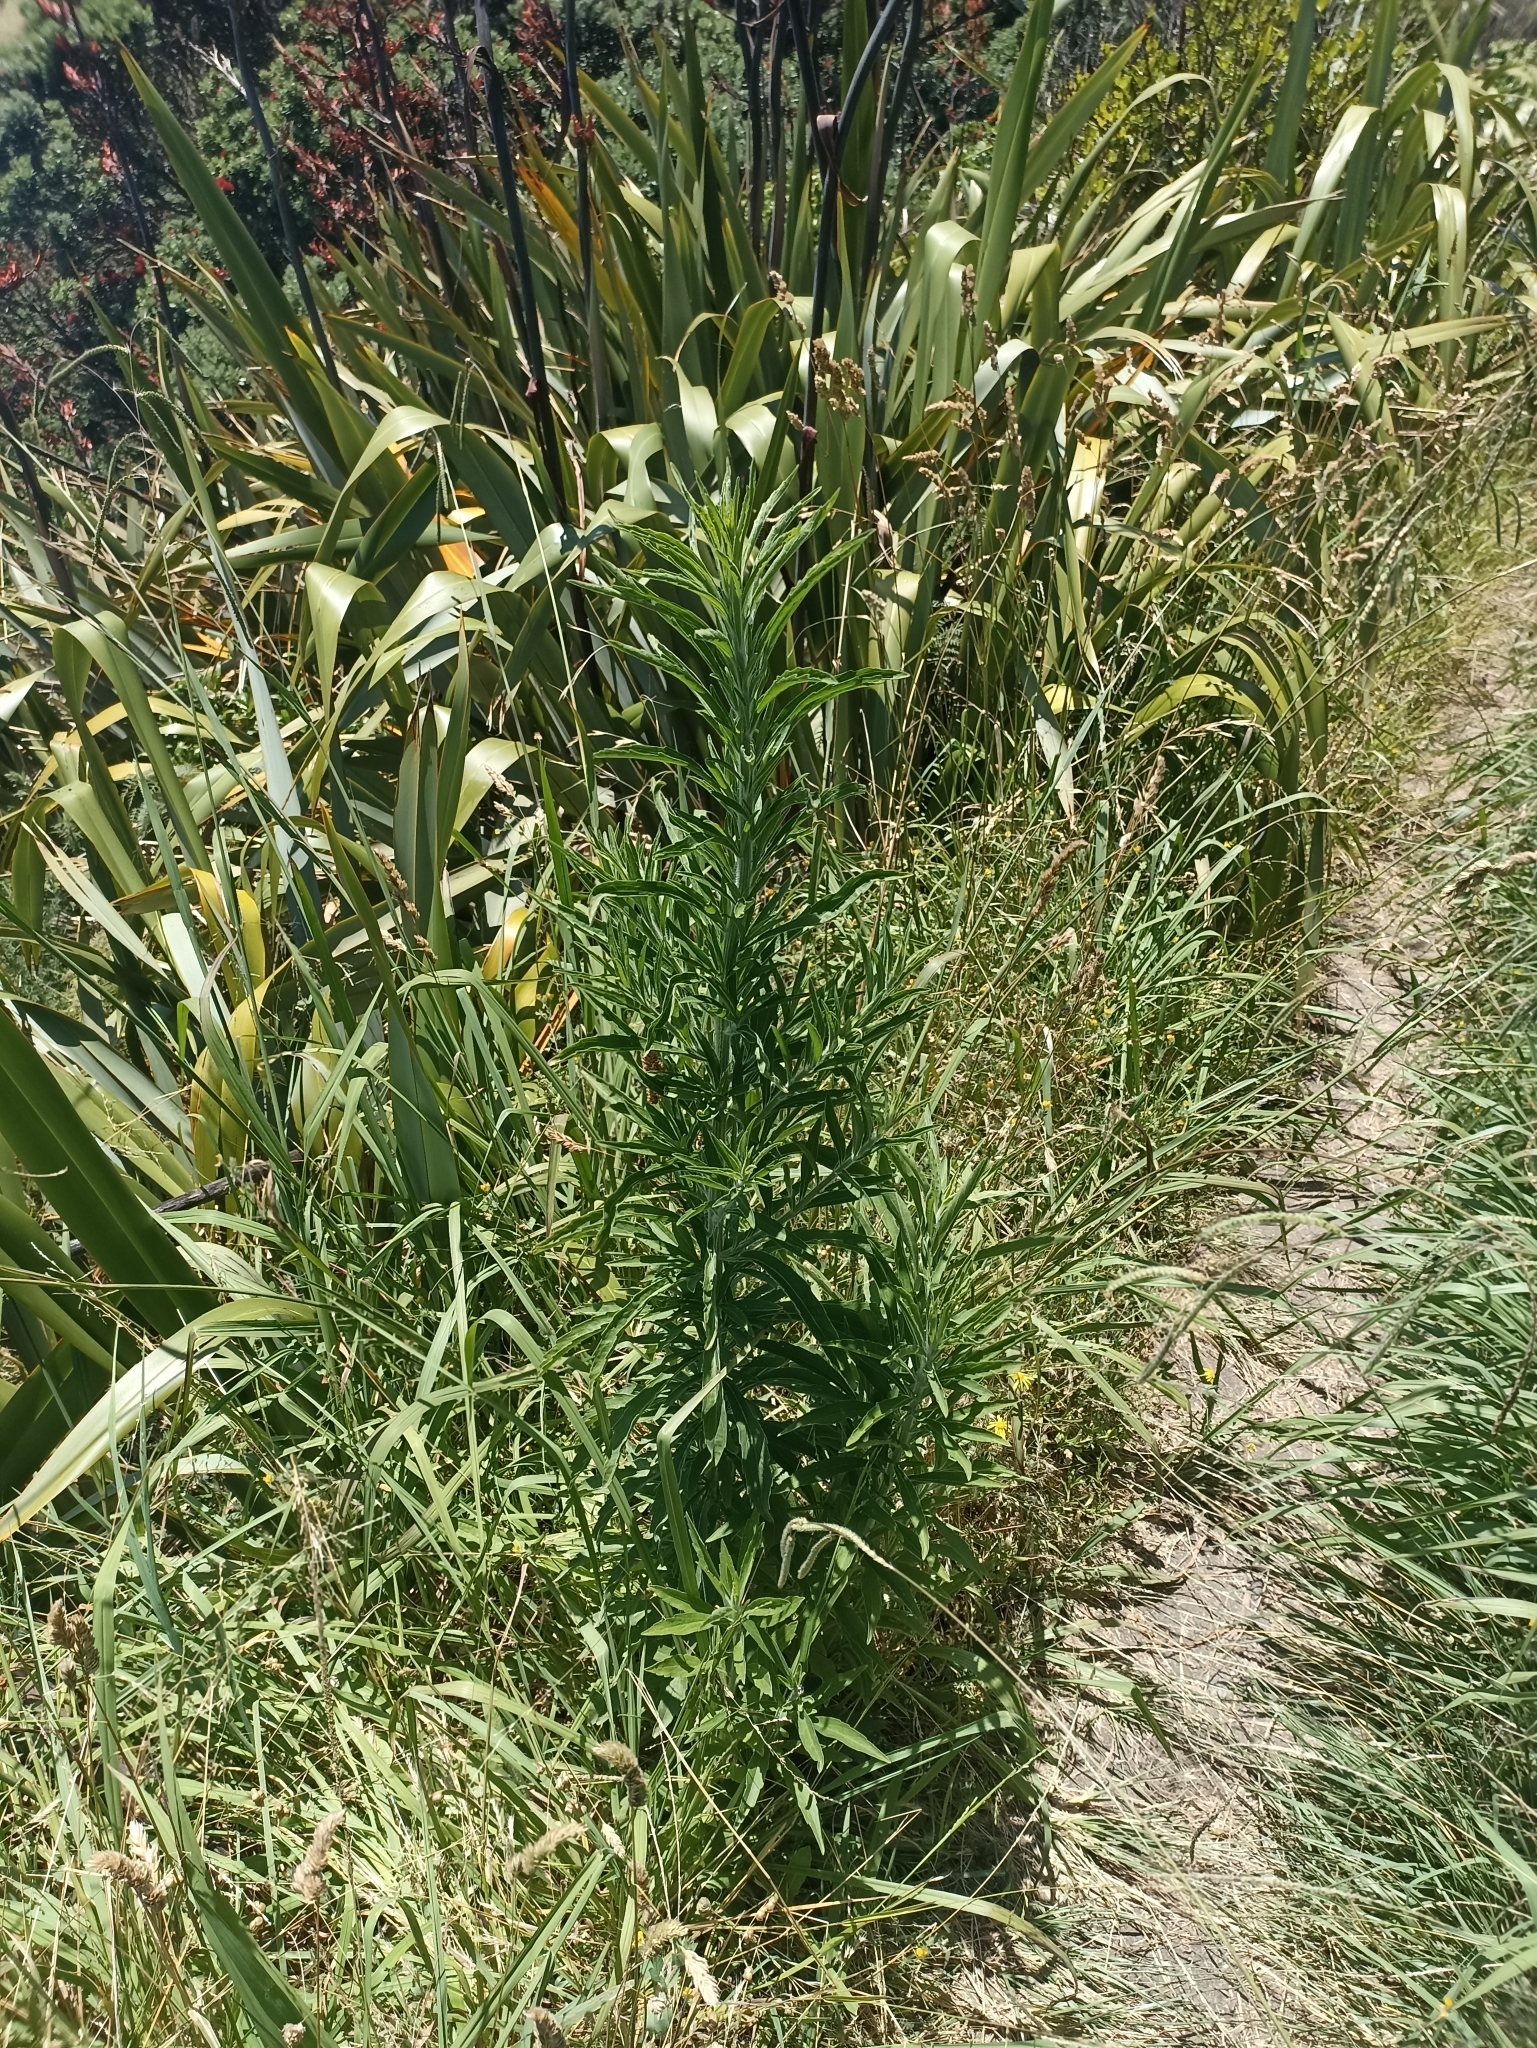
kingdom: Plantae
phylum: Tracheophyta
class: Magnoliopsida
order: Asterales
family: Asteraceae
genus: Erigeron
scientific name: Erigeron sumatrensis
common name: Daisy
